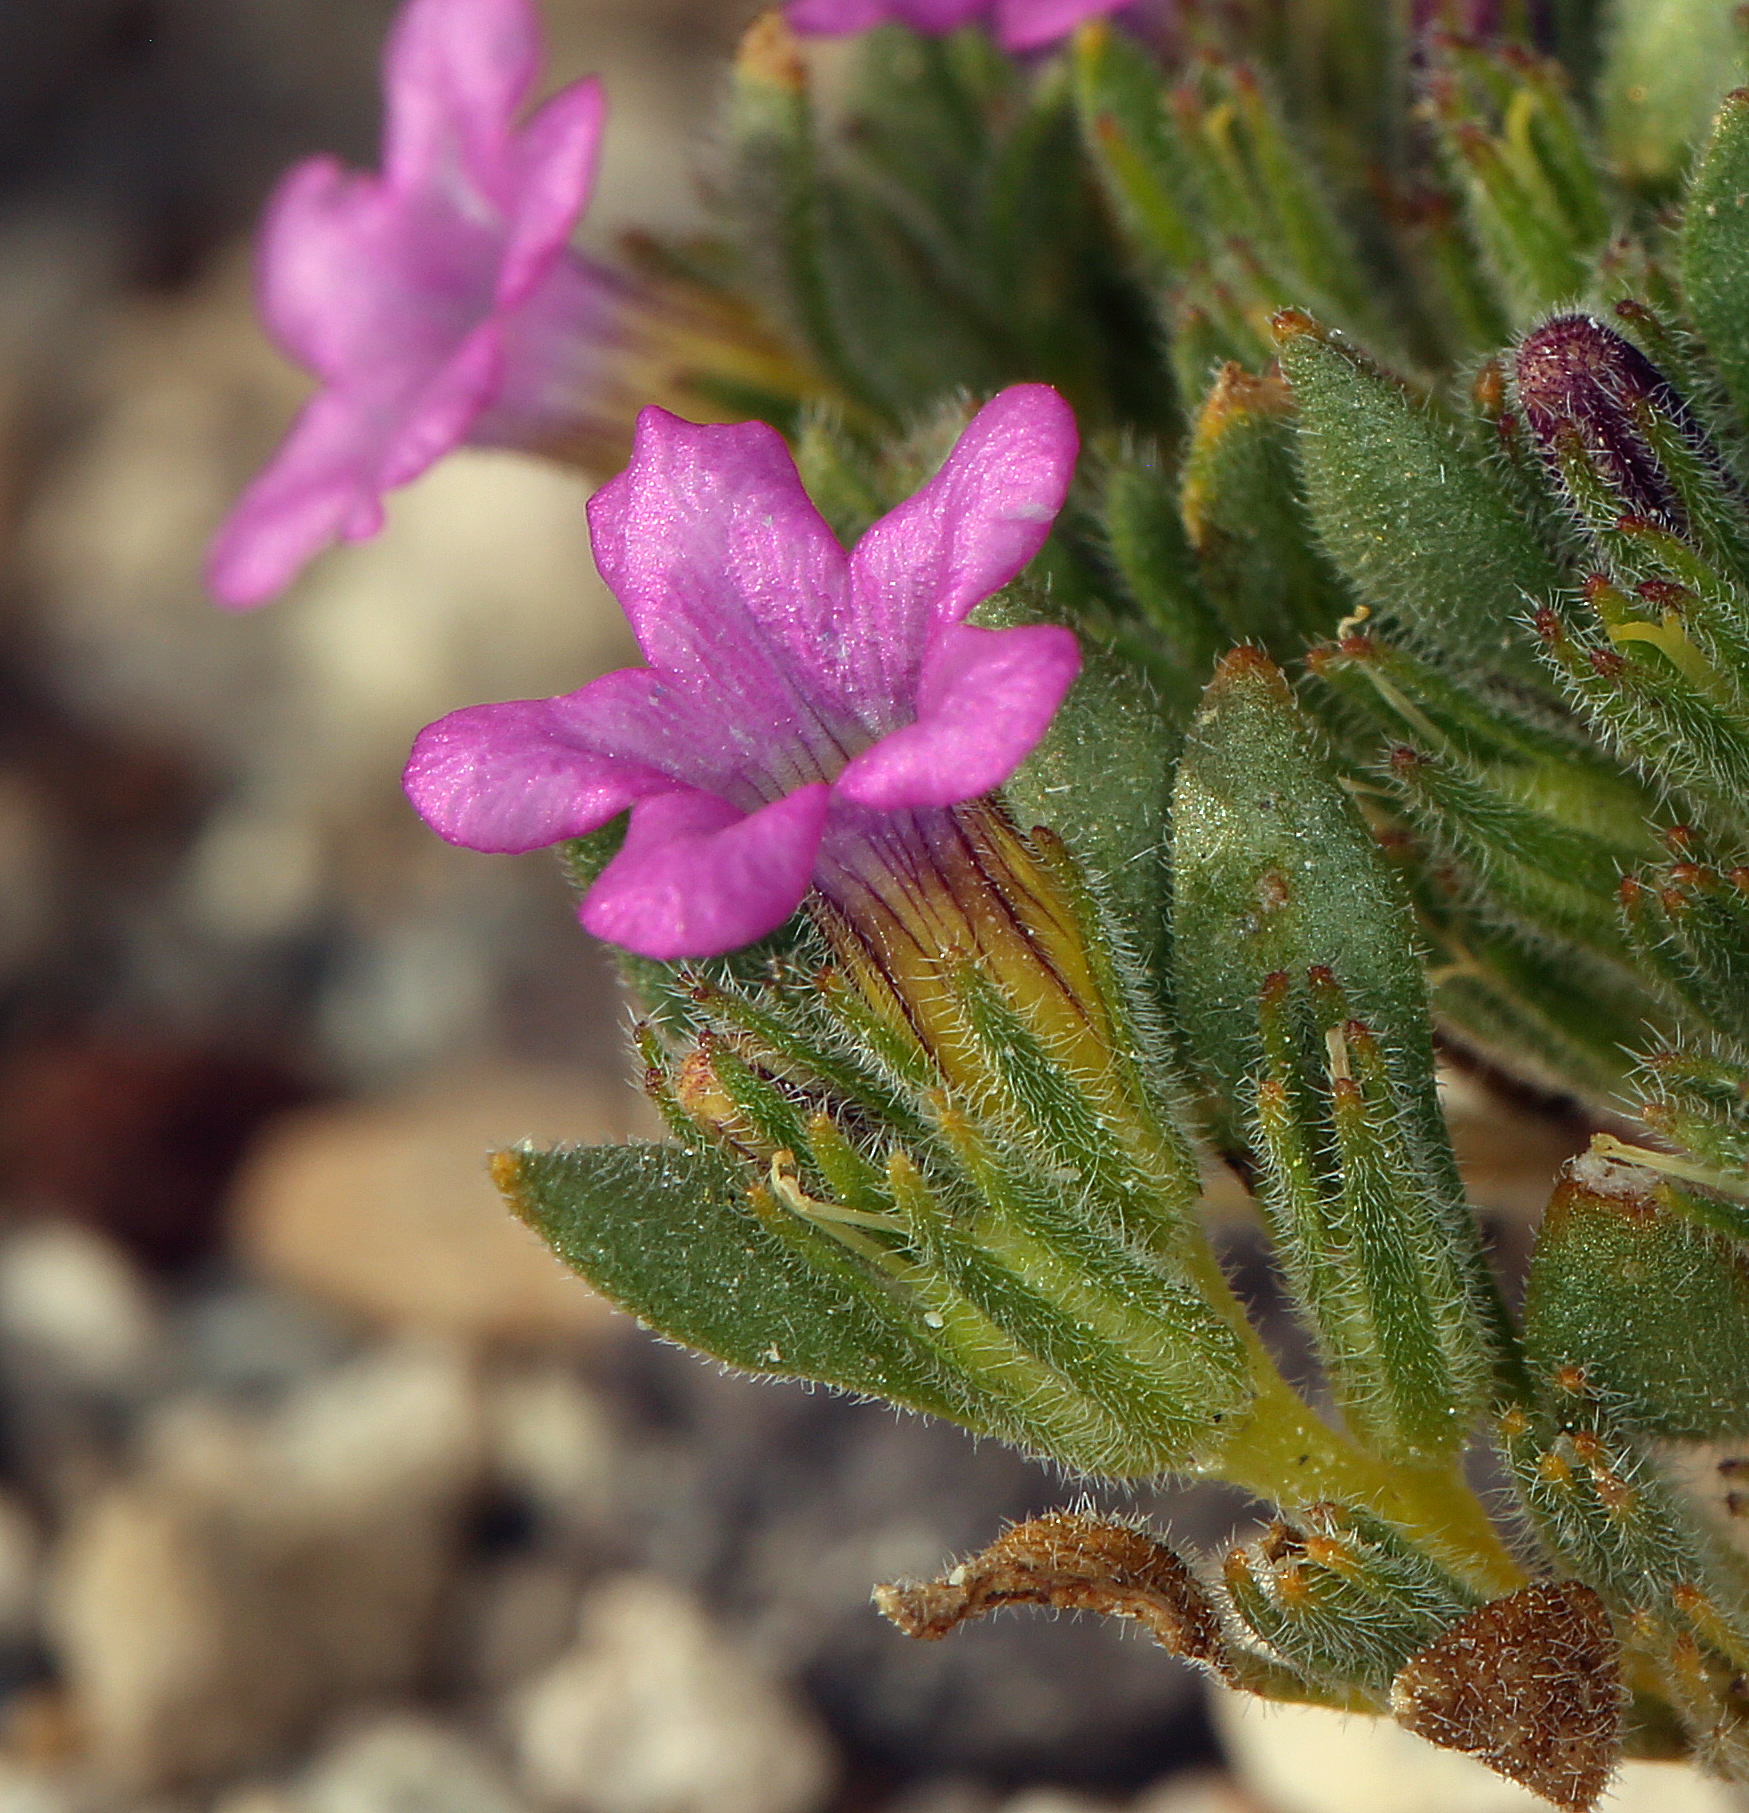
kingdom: Plantae
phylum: Tracheophyta
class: Magnoliopsida
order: Boraginales
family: Namaceae
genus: Nama
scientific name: Nama aretioides
